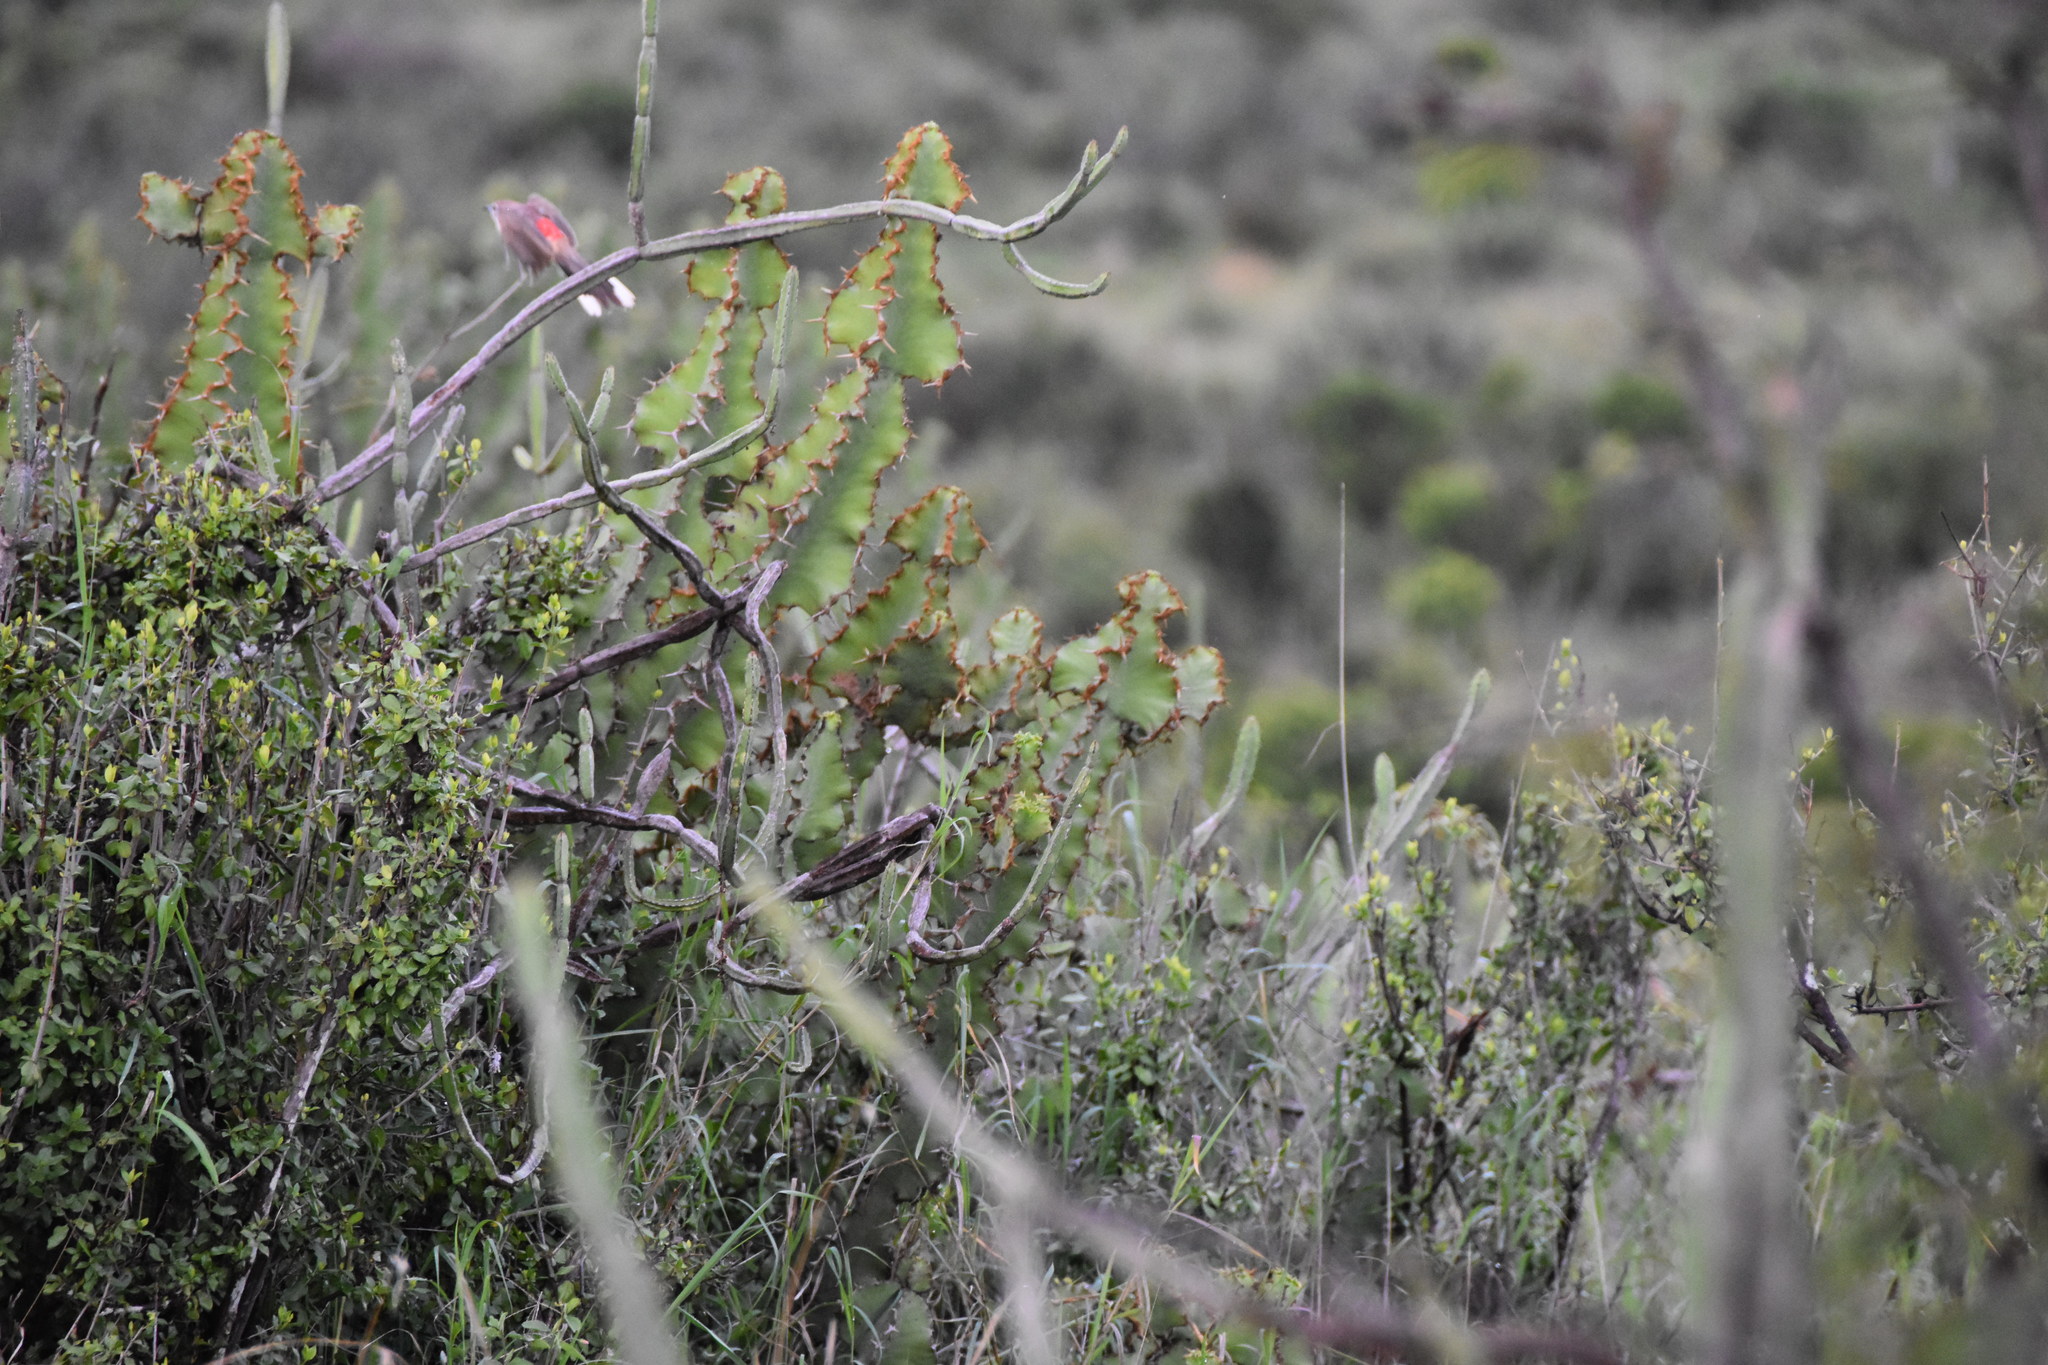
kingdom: Animalia
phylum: Chordata
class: Aves
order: Passeriformes
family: Malaconotidae
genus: Telophorus
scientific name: Telophorus cruentus
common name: Rosy-patched bushshrike
